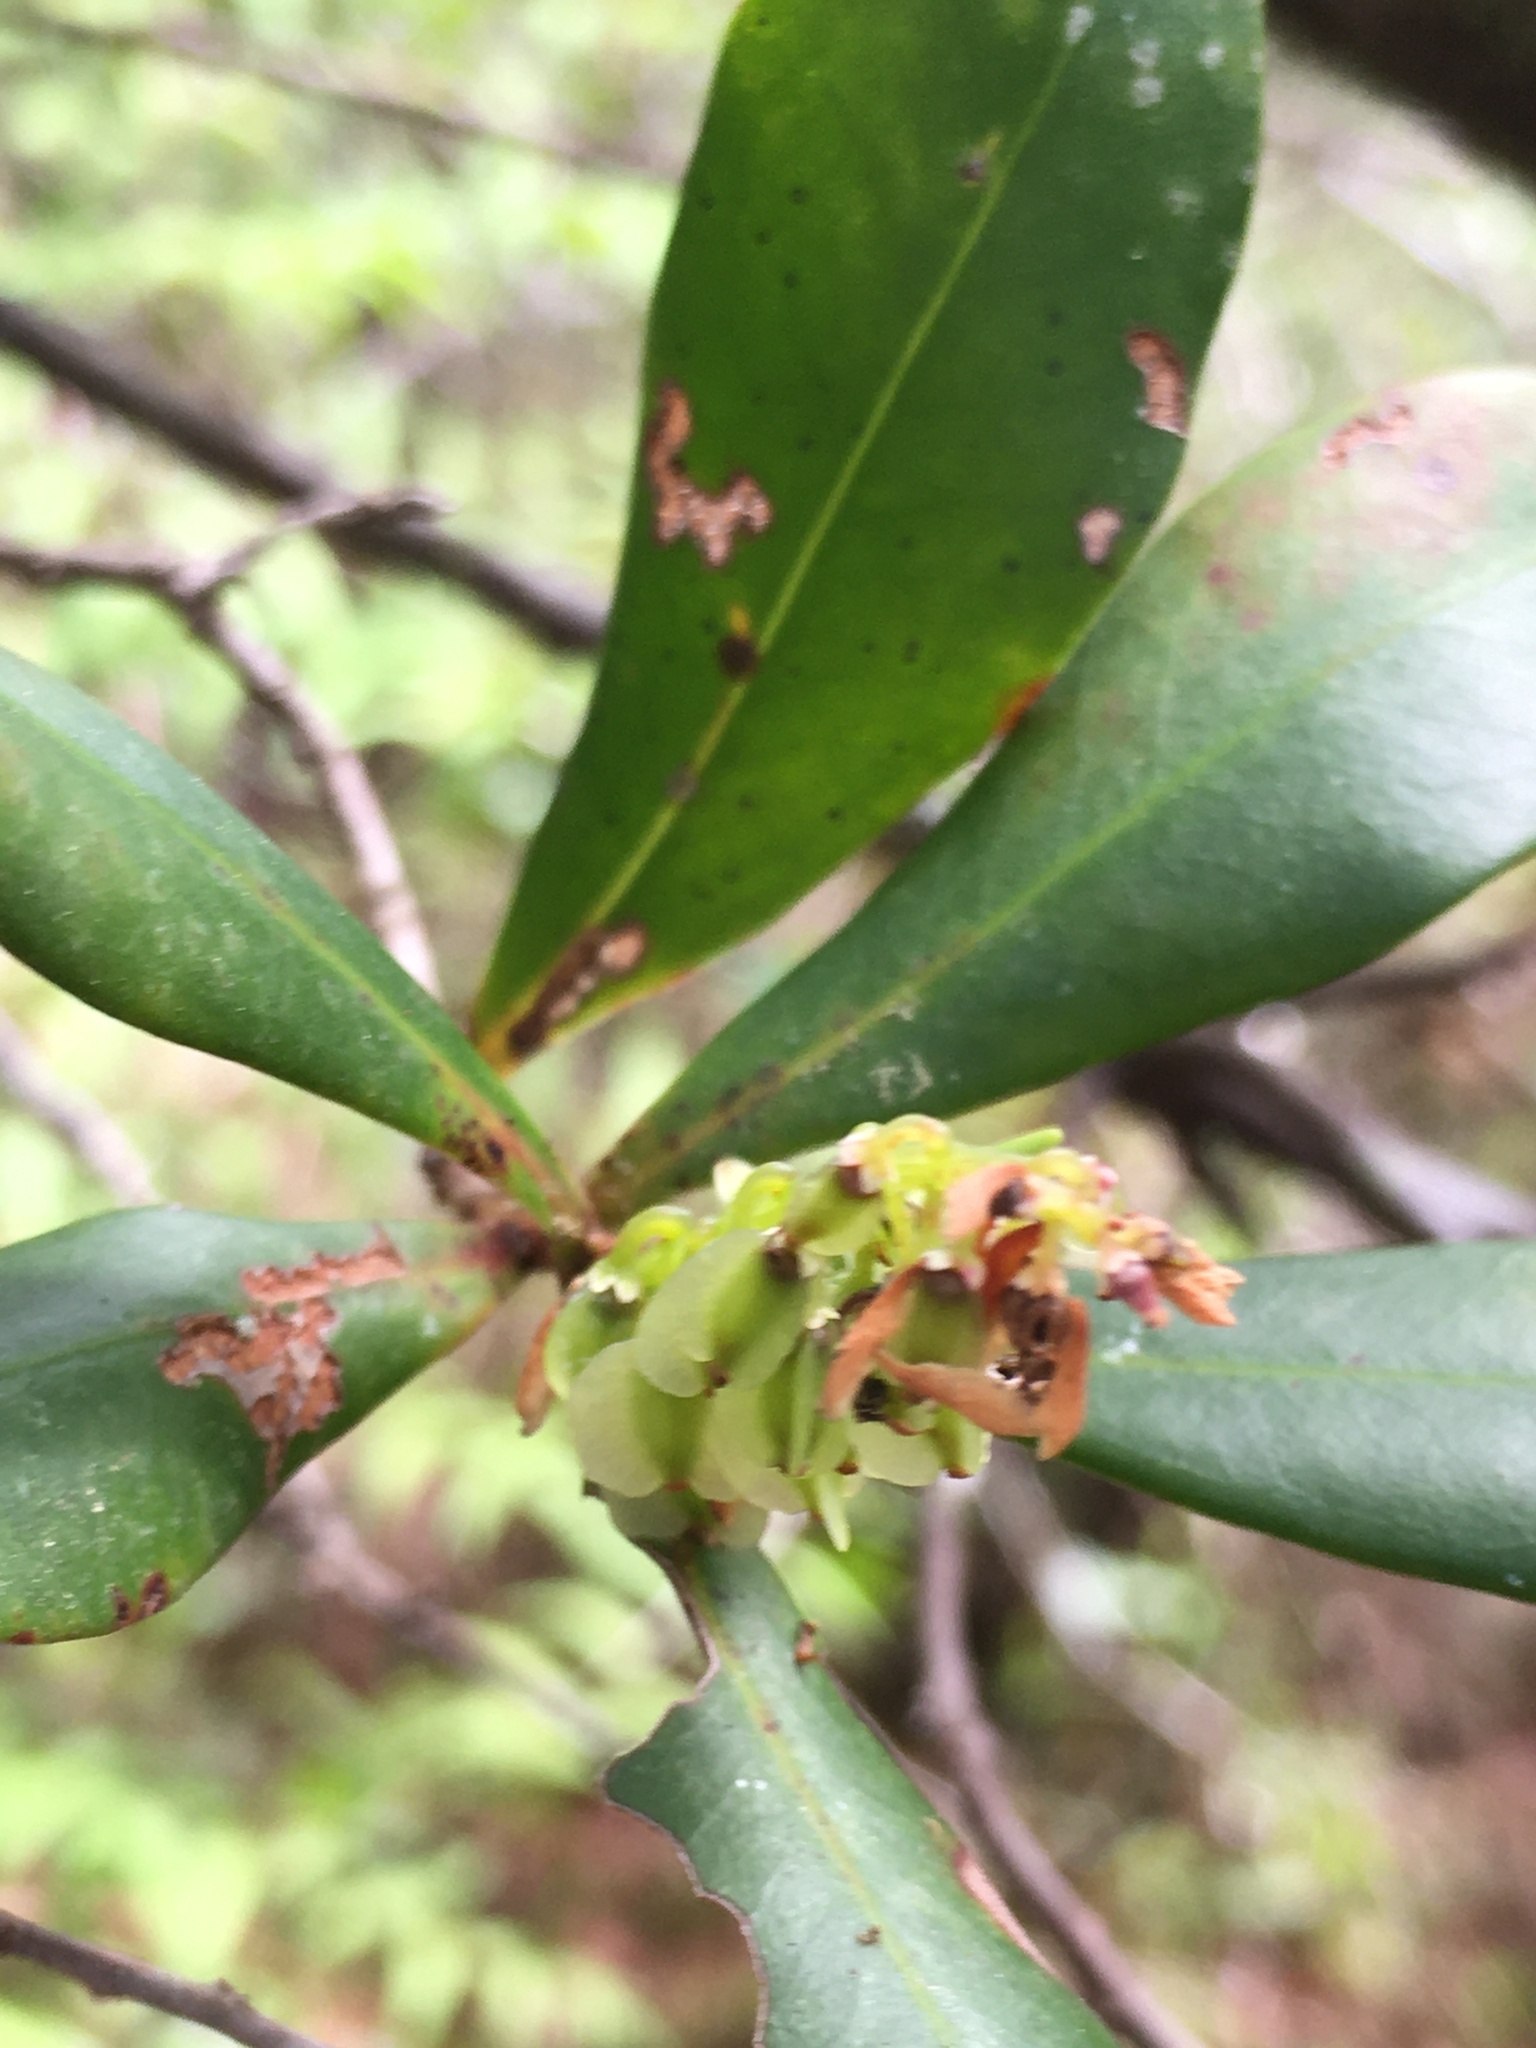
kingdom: Plantae
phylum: Tracheophyta
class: Magnoliopsida
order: Ericales
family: Cyrillaceae
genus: Cliftonia
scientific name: Cliftonia monophylla
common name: Titi
